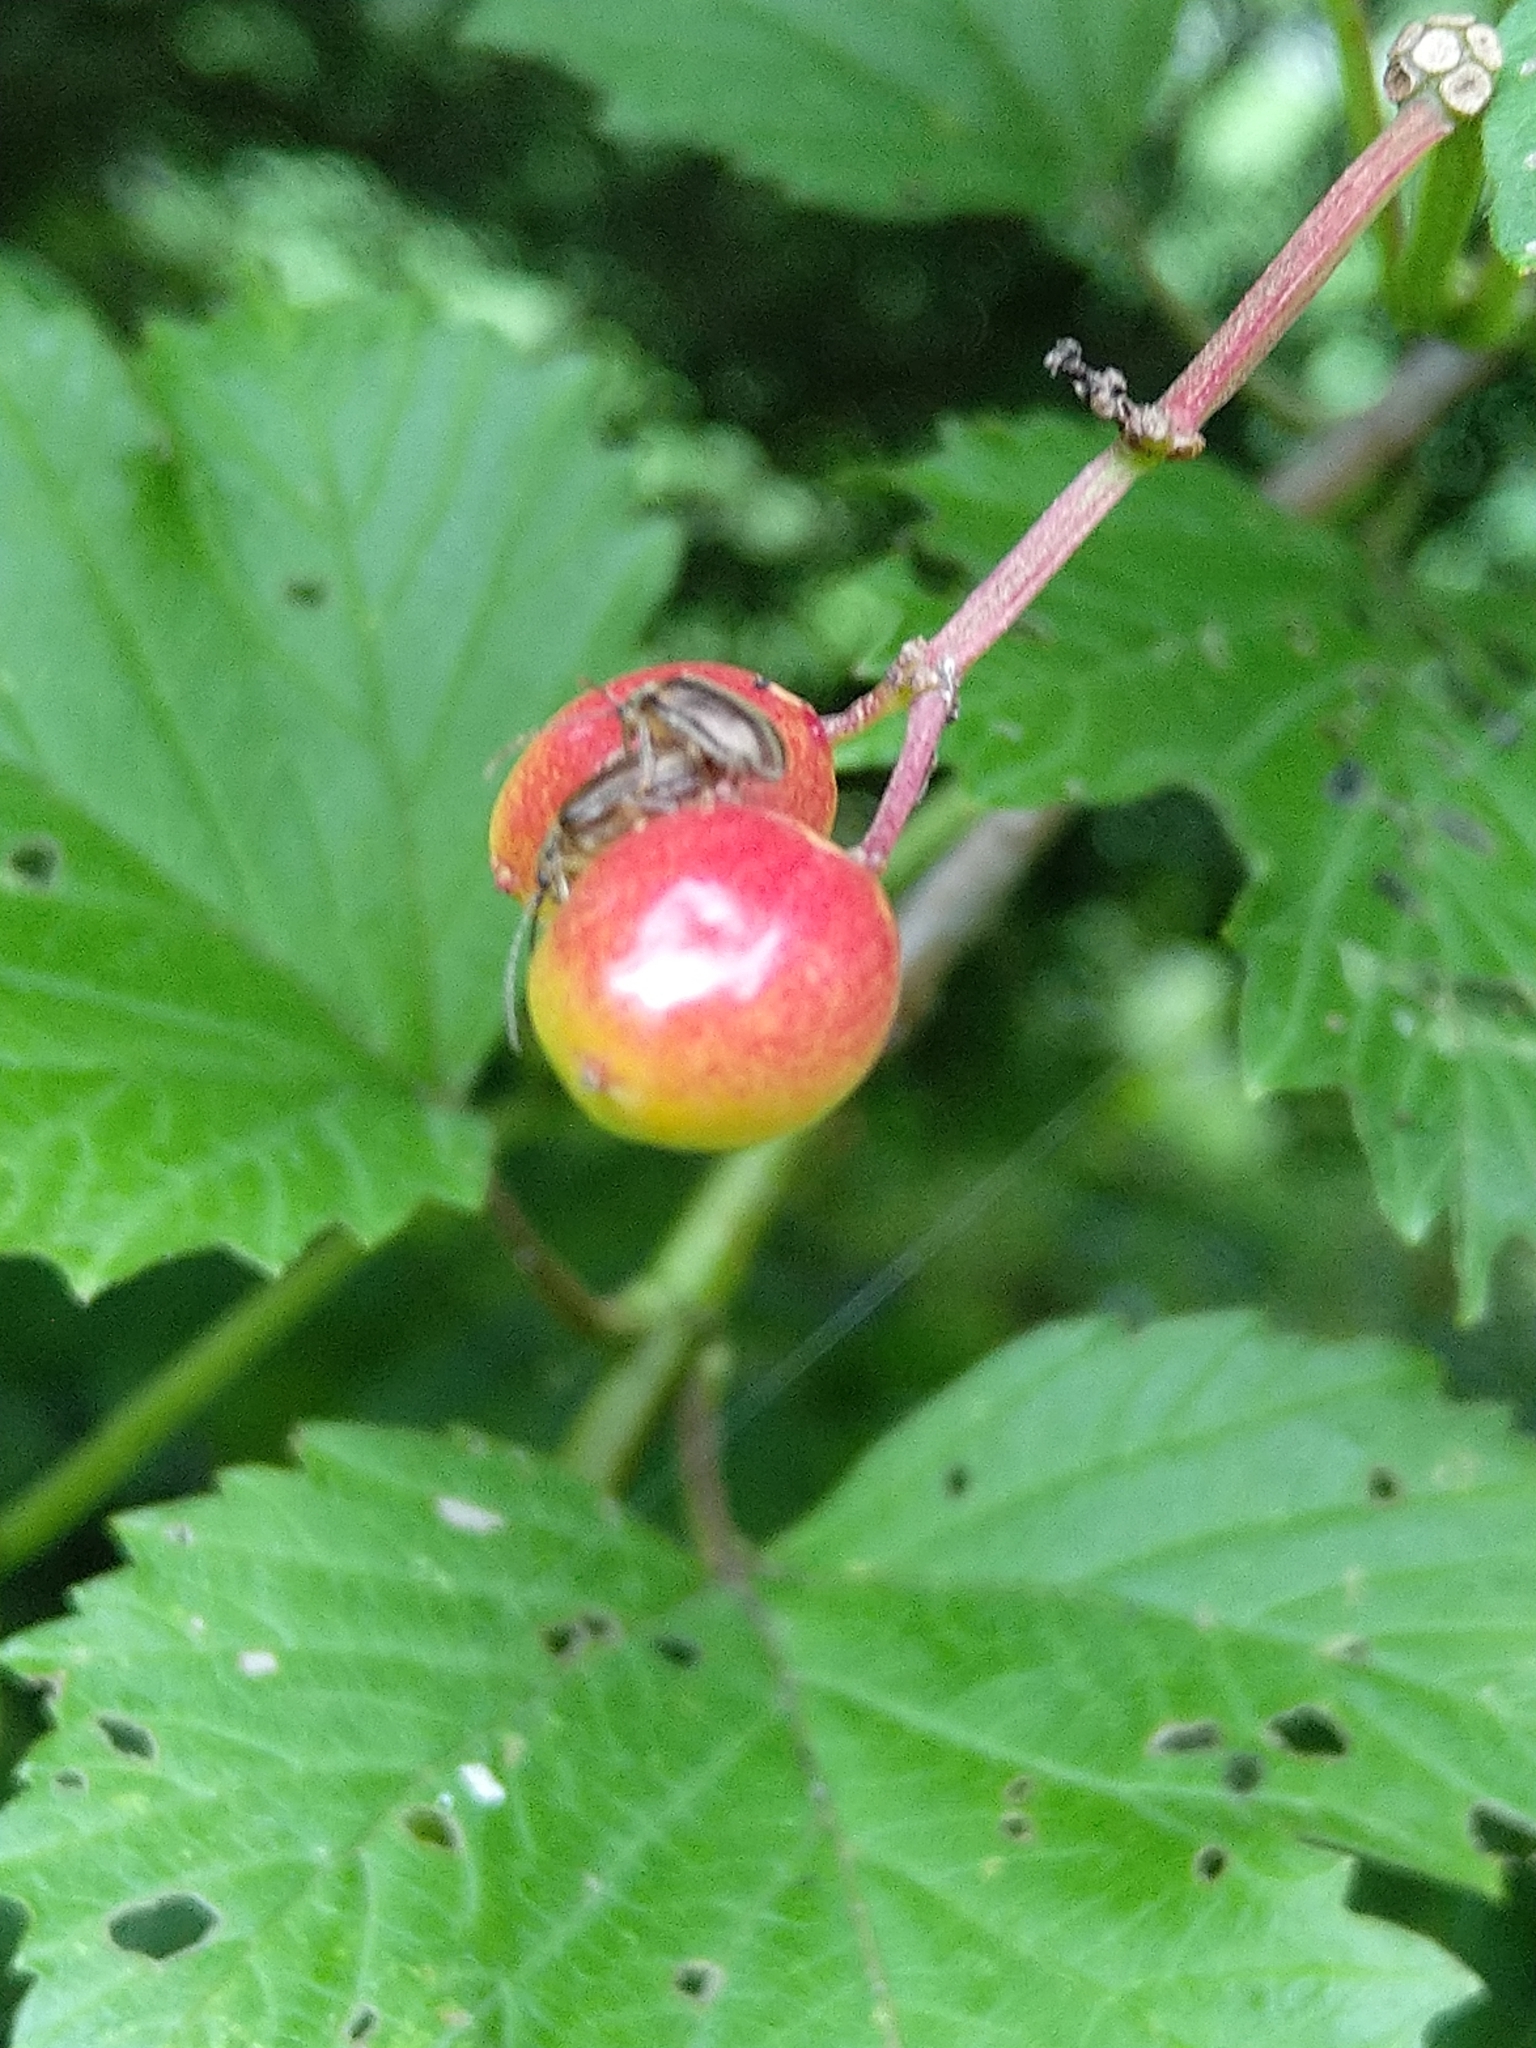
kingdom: Animalia
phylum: Arthropoda
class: Insecta
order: Coleoptera
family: Chrysomelidae
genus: Pyrrhalta
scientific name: Pyrrhalta viburni
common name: Guelder-rose leaf beetle
